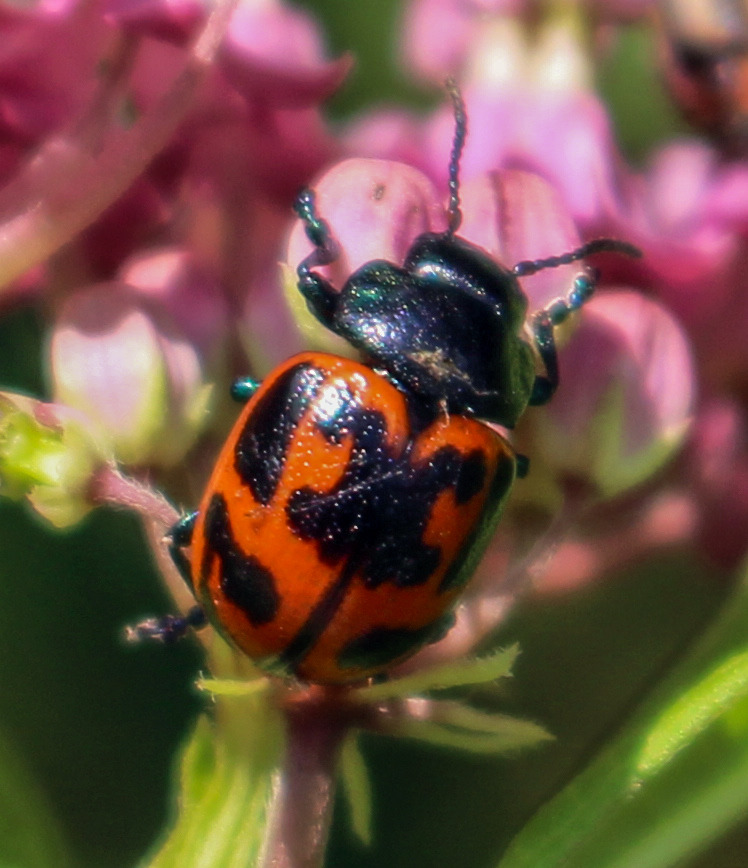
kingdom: Animalia
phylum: Arthropoda
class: Insecta
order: Coleoptera
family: Chrysomelidae
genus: Labidomera
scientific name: Labidomera clivicollis
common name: Swamp milkweed leaf beetle
